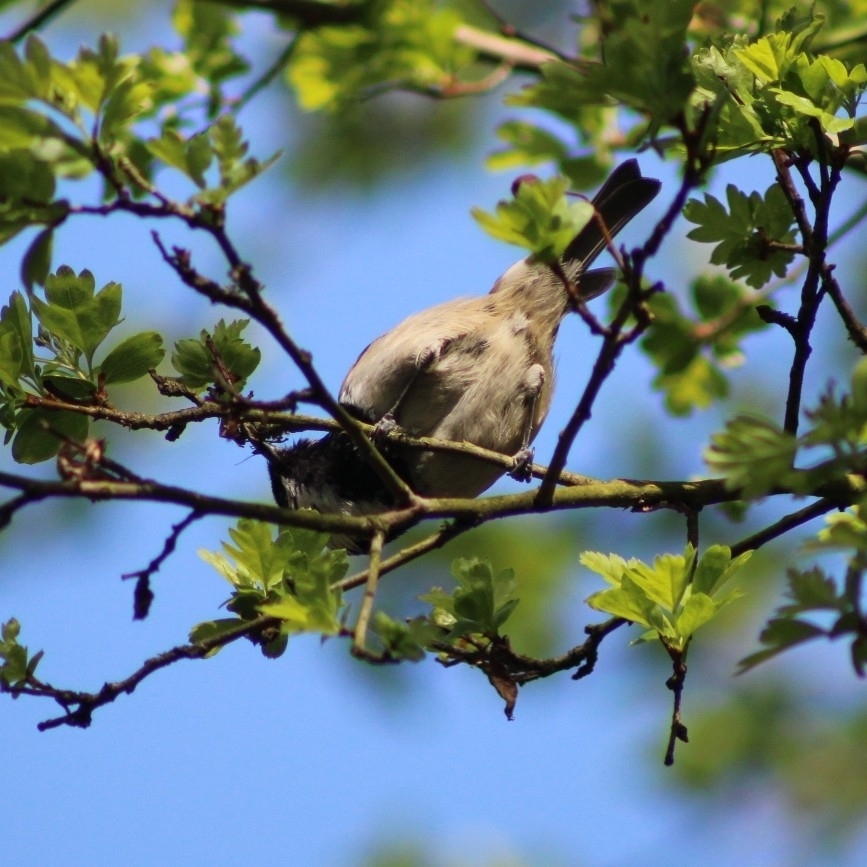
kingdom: Animalia
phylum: Chordata
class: Aves
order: Passeriformes
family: Paridae
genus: Periparus
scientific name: Periparus ater
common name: Coal tit
